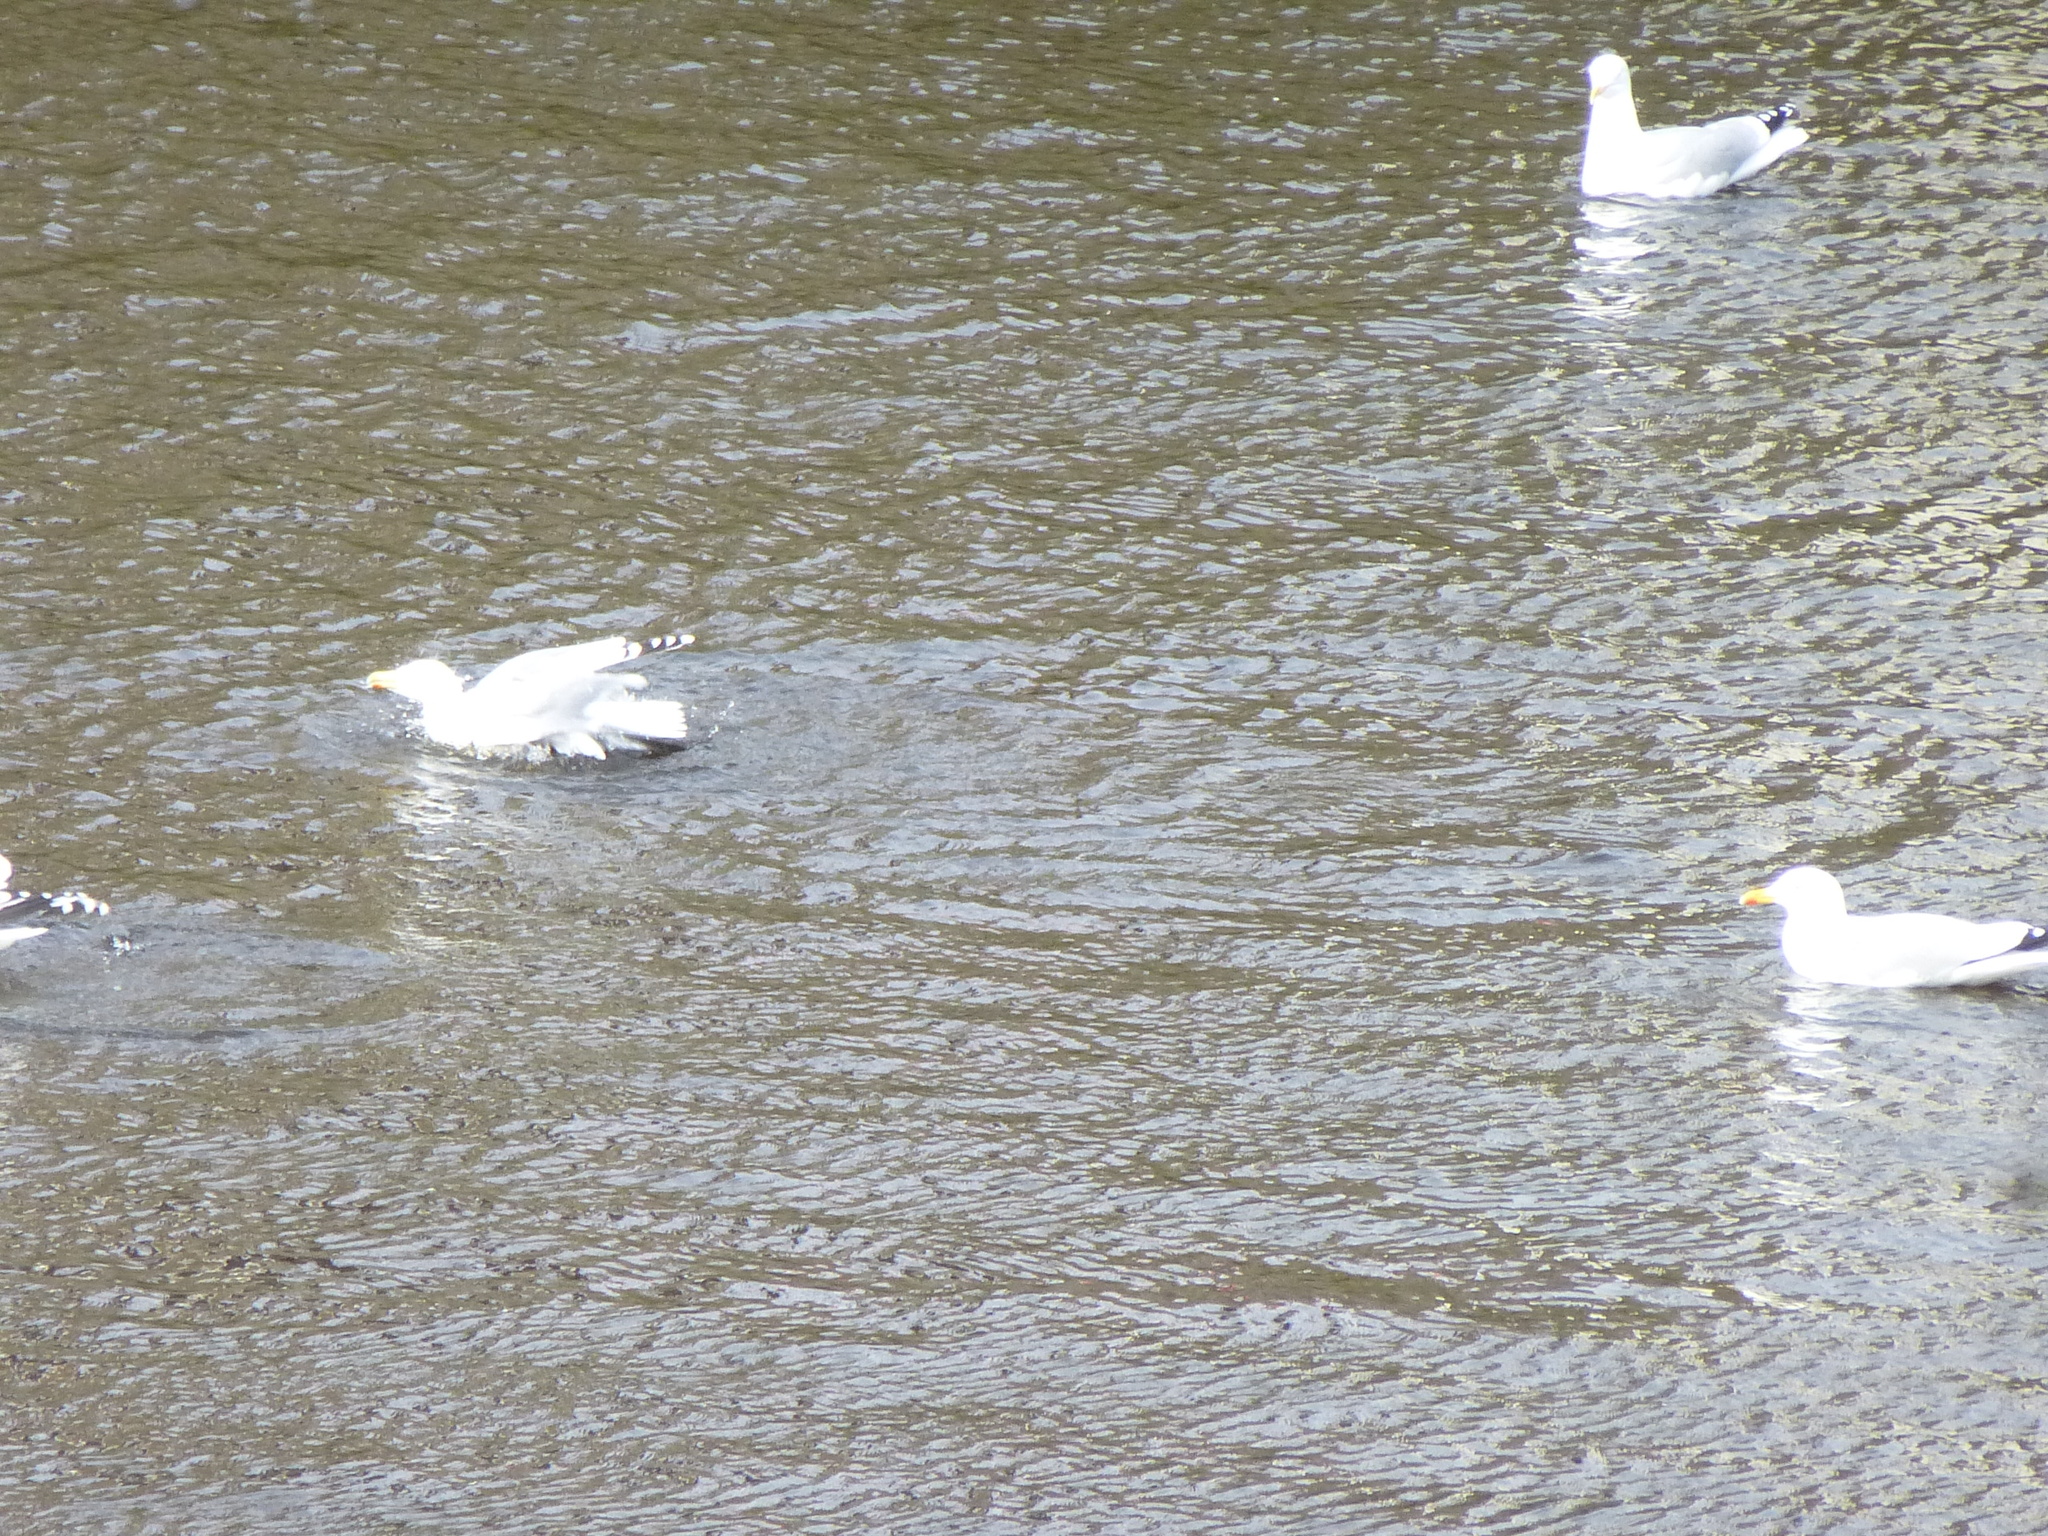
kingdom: Animalia
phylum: Chordata
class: Aves
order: Charadriiformes
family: Laridae
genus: Larus
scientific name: Larus argentatus
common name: Herring gull
